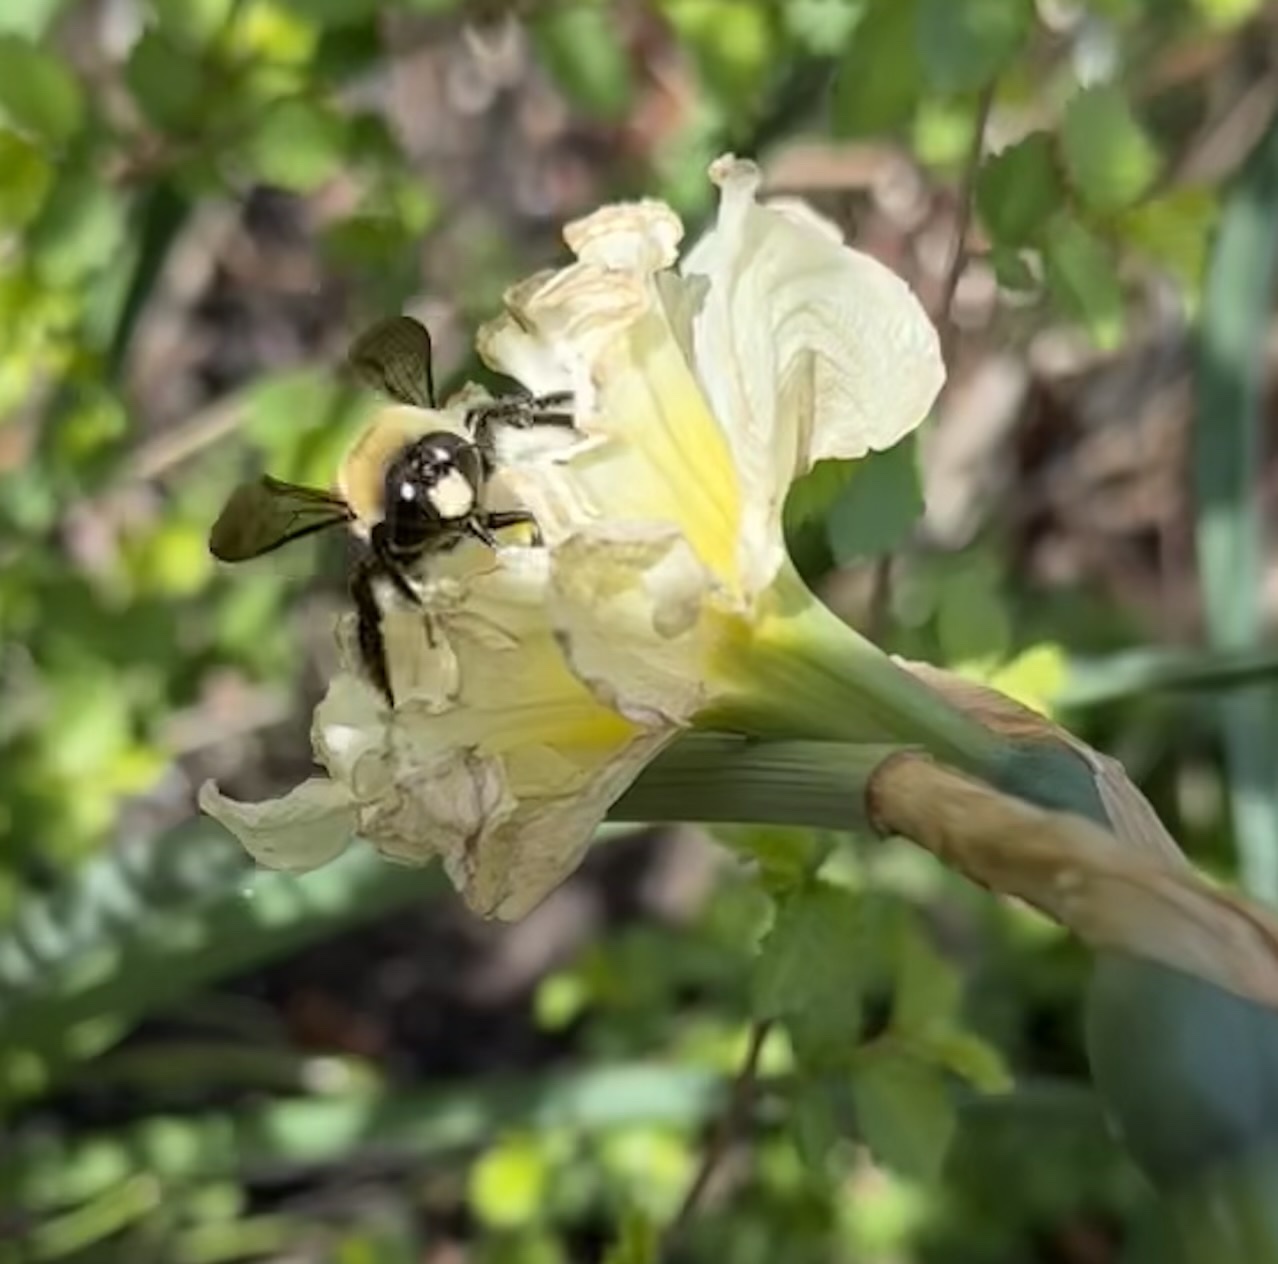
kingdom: Animalia
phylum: Arthropoda
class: Insecta
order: Hymenoptera
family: Apidae
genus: Xylocopa
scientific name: Xylocopa virginica
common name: Carpenter bee
